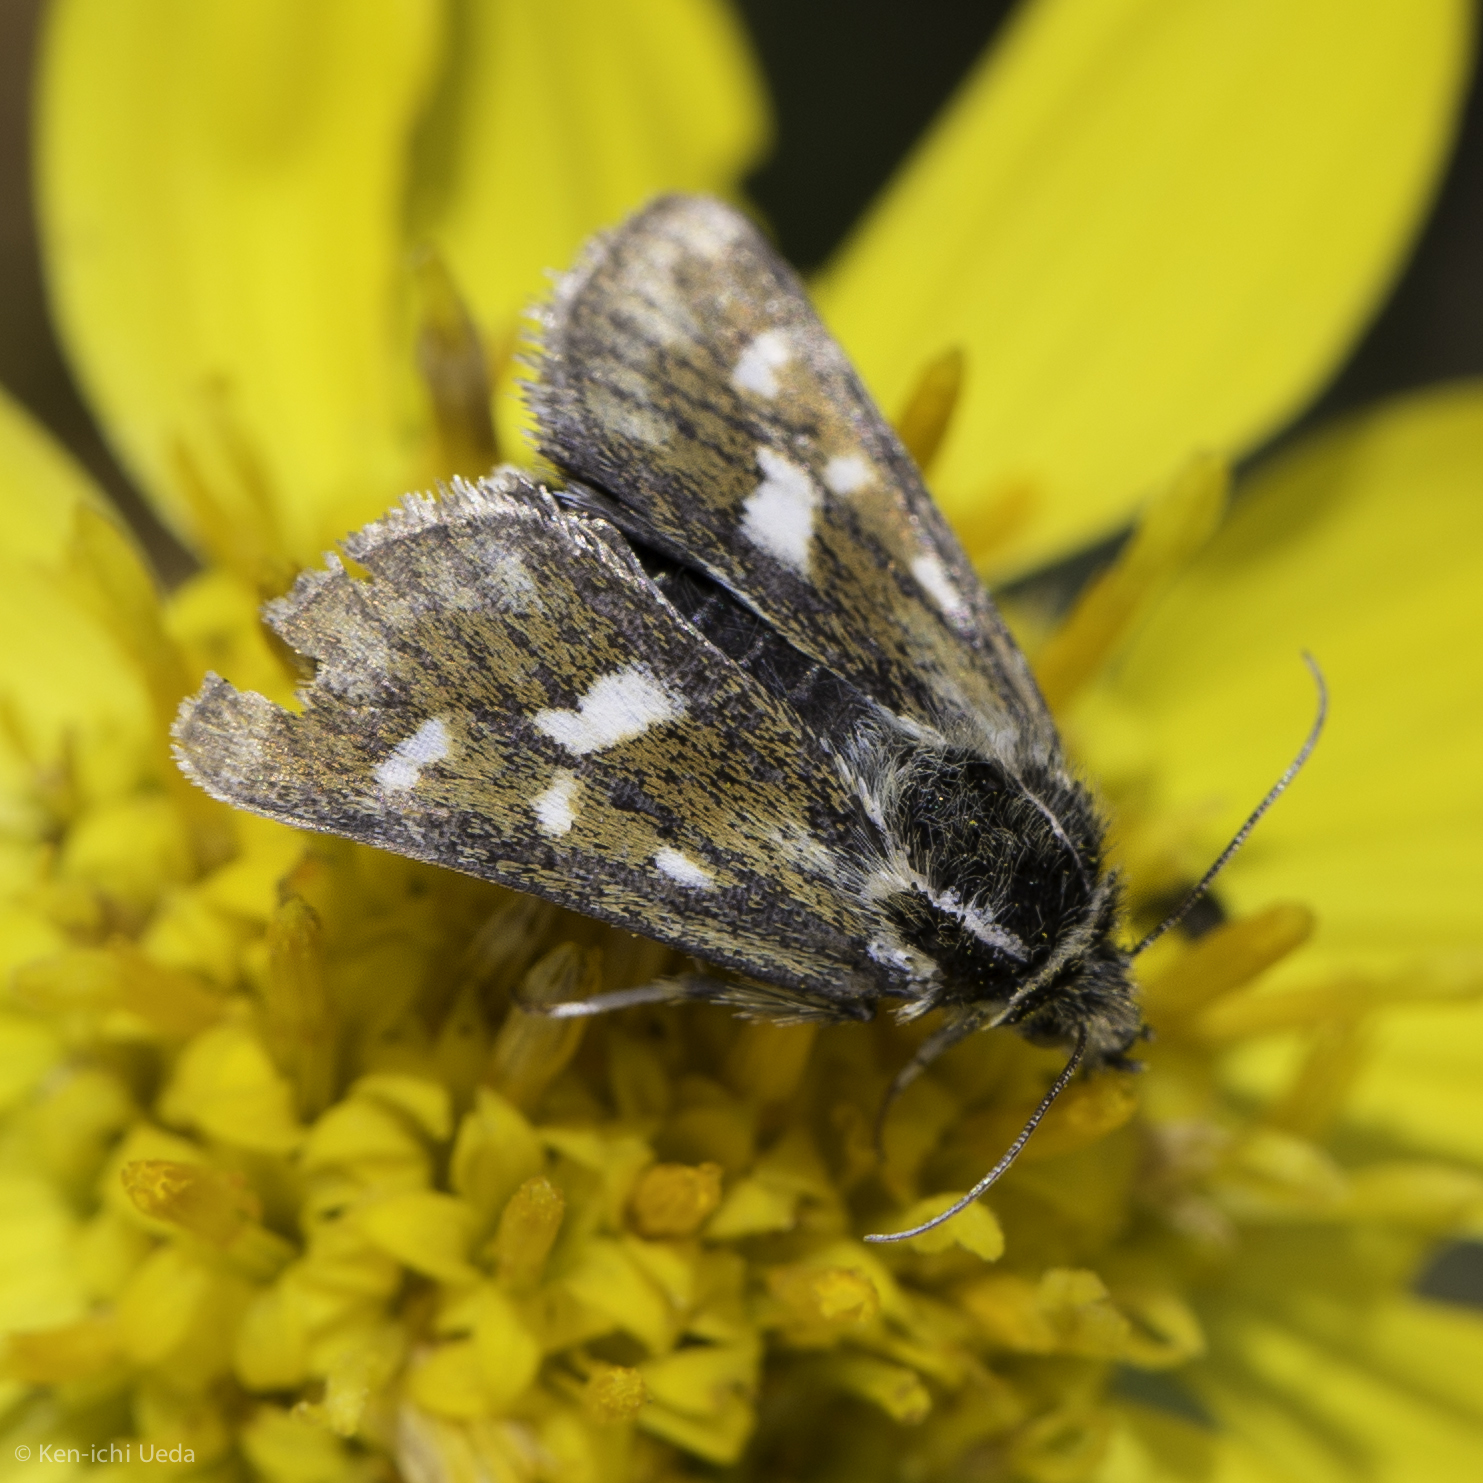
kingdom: Animalia
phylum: Arthropoda
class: Insecta
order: Lepidoptera
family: Noctuidae
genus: Heliothodes
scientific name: Heliothodes diminutiva
